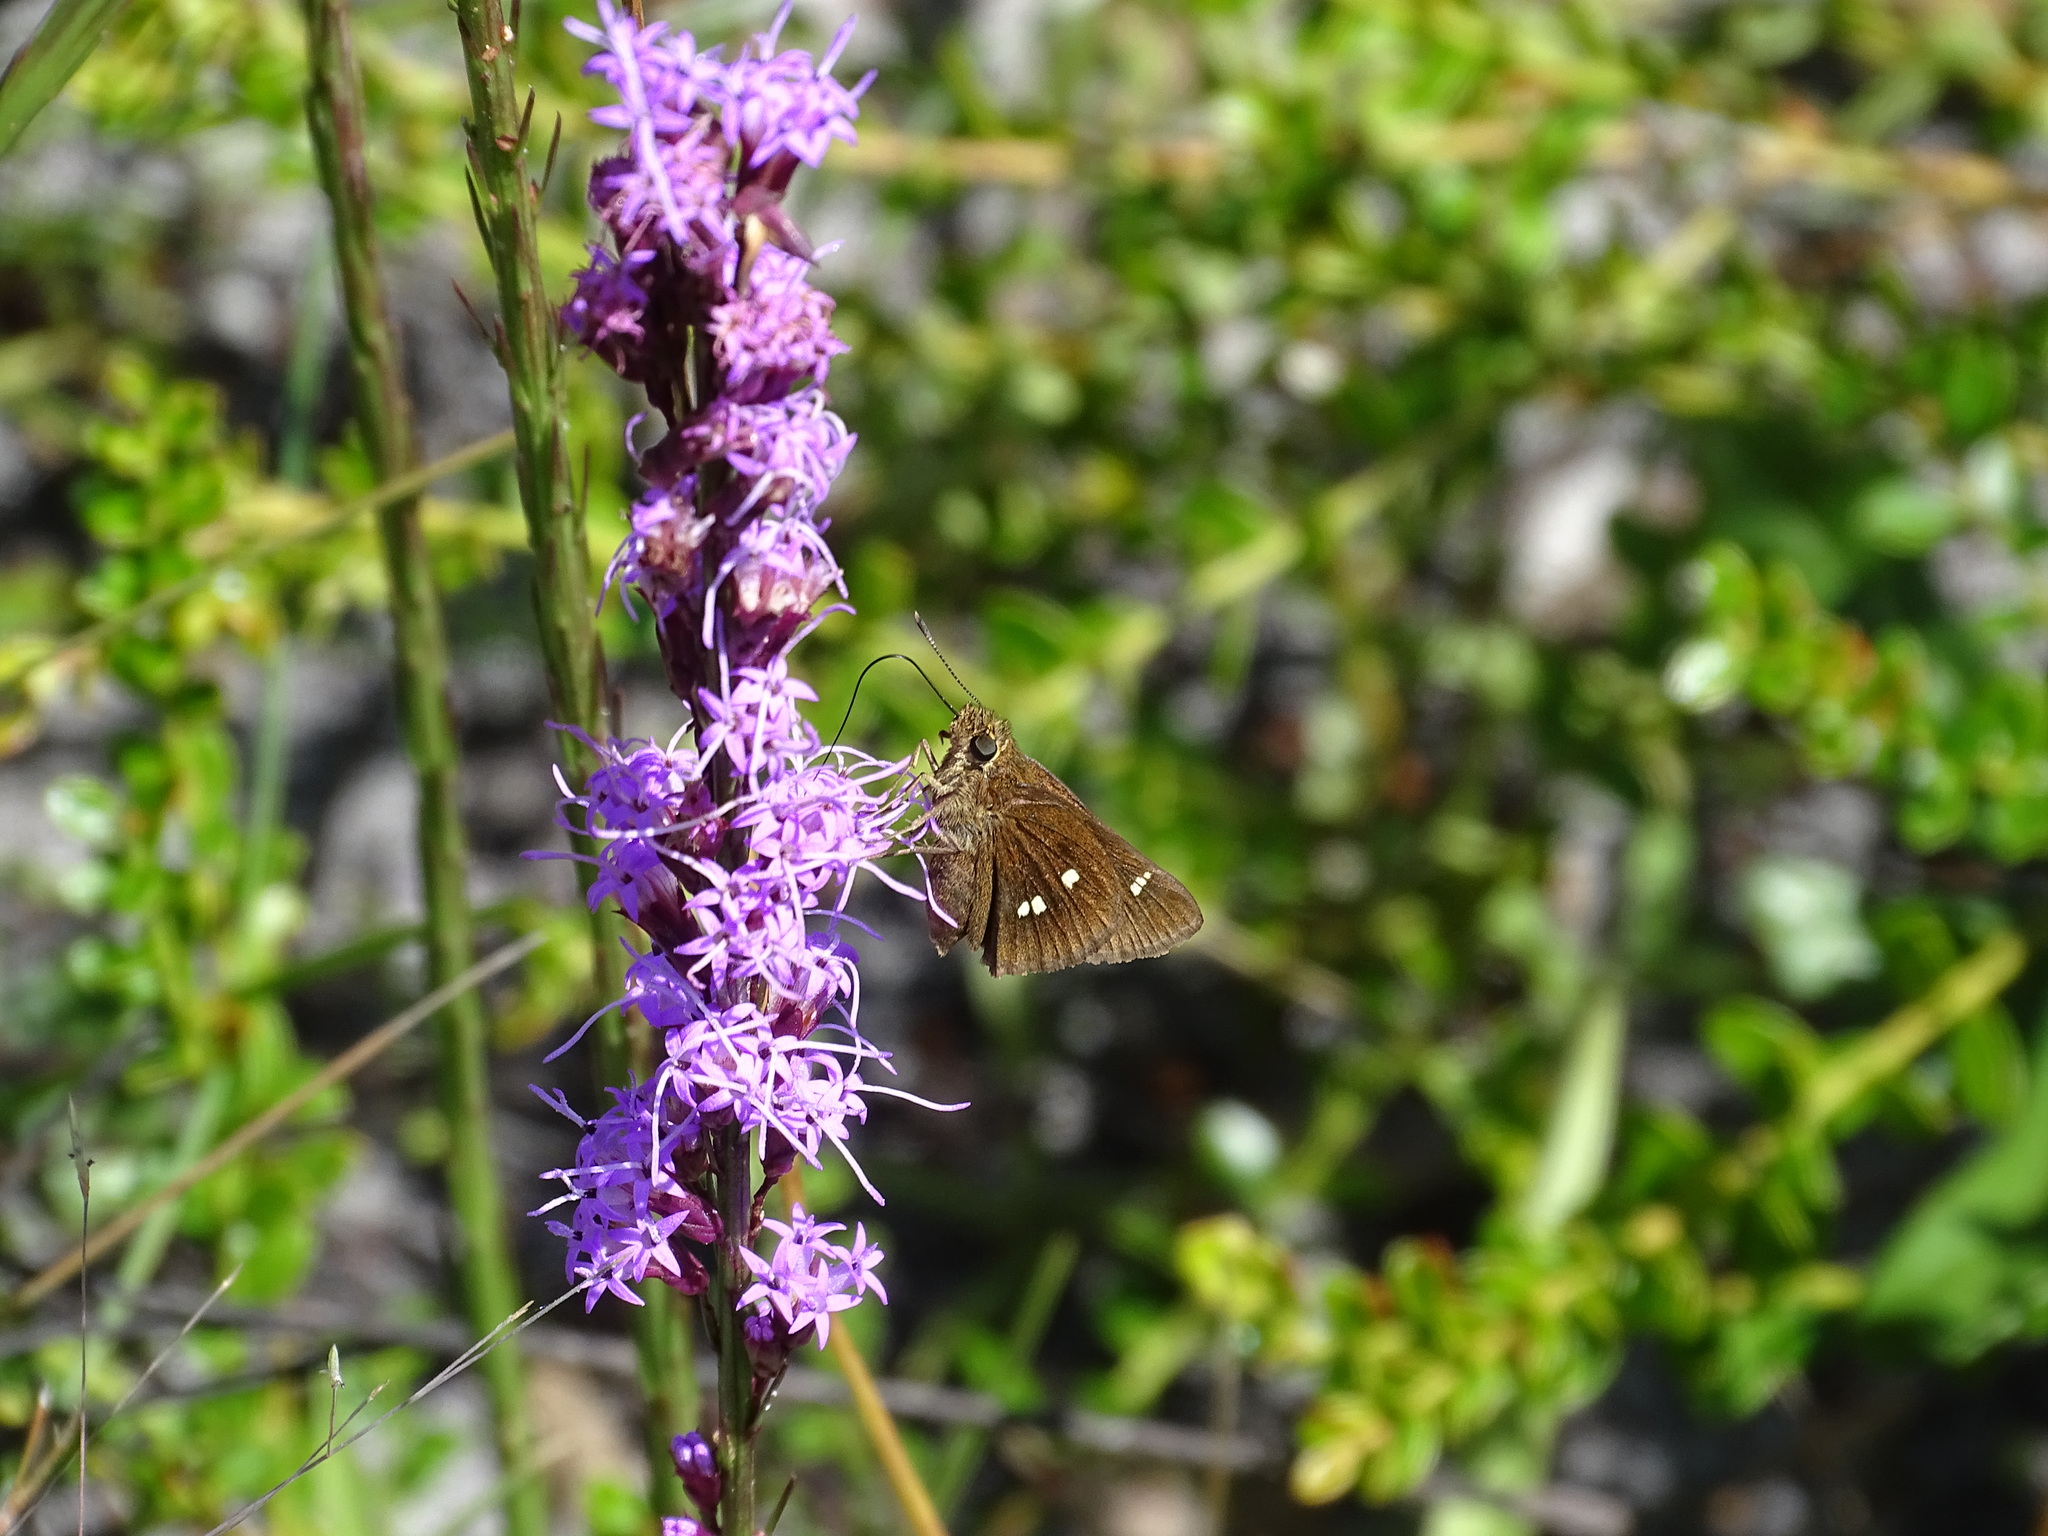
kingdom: Animalia
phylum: Arthropoda
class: Insecta
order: Lepidoptera
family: Hesperiidae
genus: Oligoria
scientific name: Oligoria maculata
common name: Twin-spot skipper
